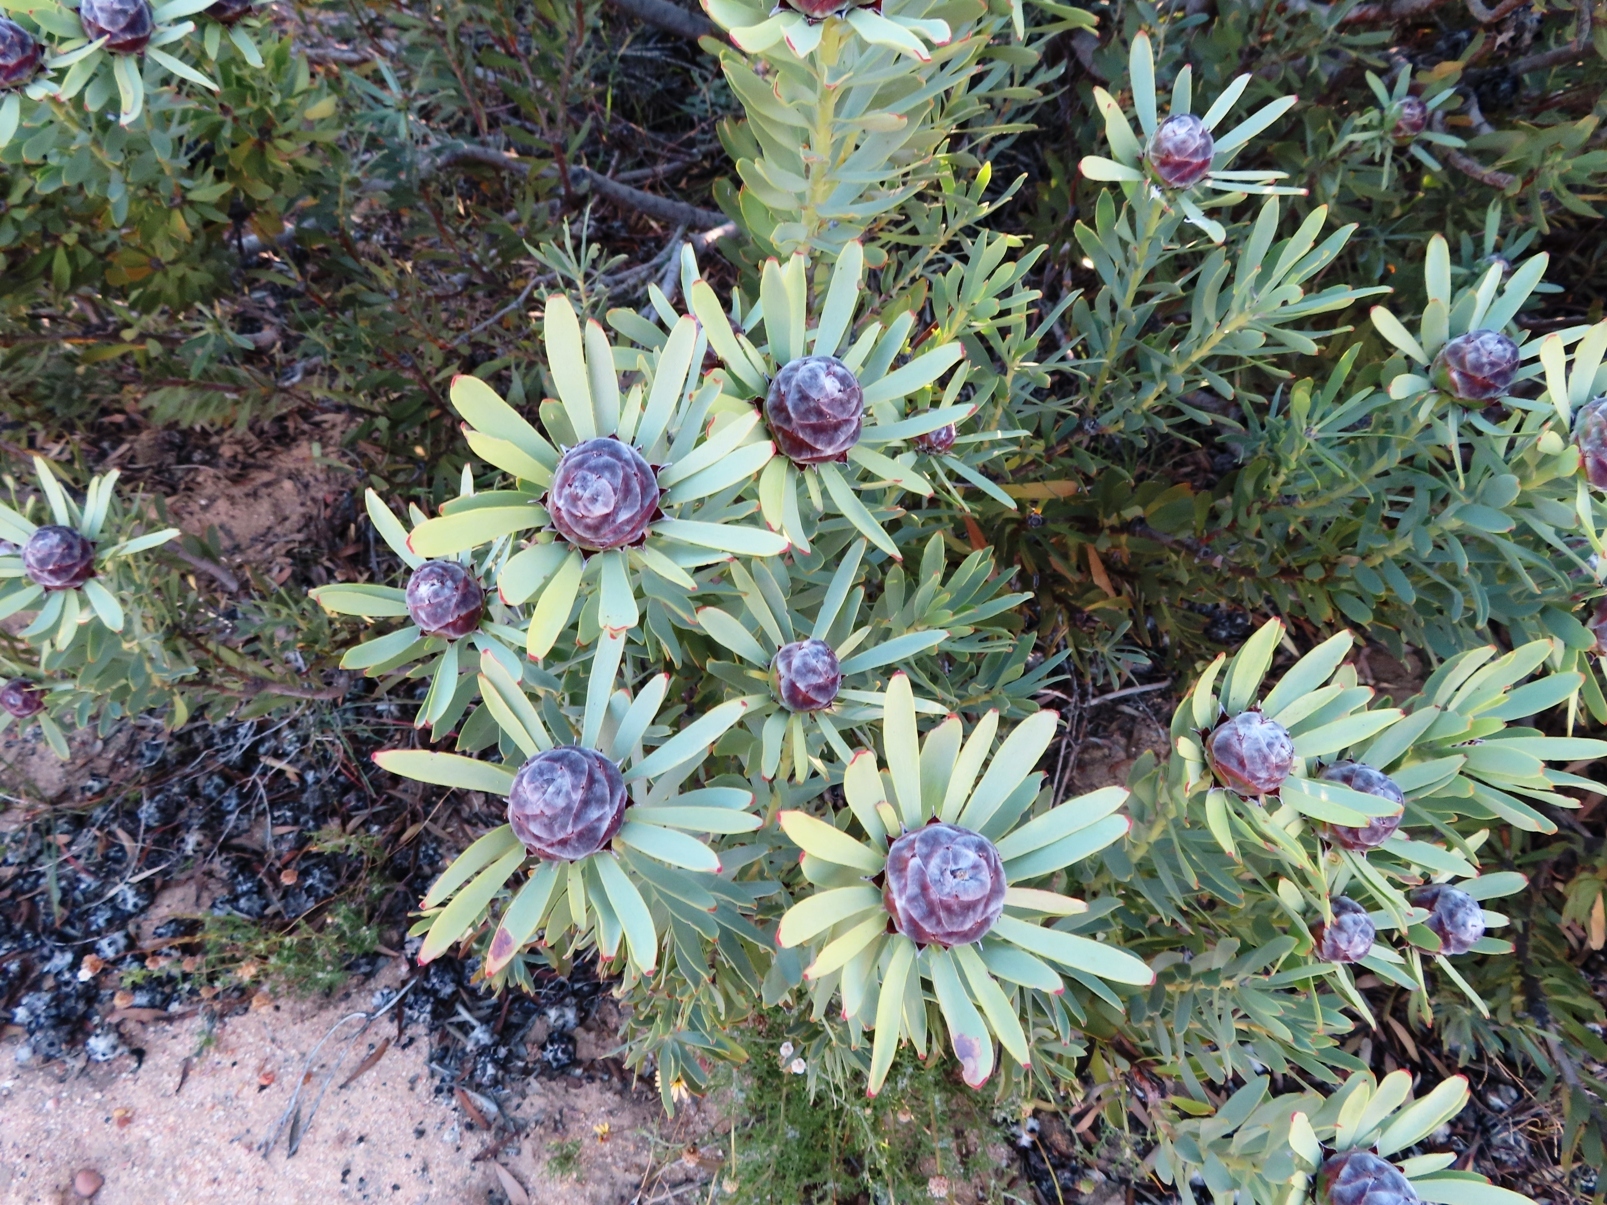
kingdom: Plantae
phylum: Tracheophyta
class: Magnoliopsida
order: Proteales
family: Proteaceae
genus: Leucadendron
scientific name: Leucadendron pubescens
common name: Grey conebush
